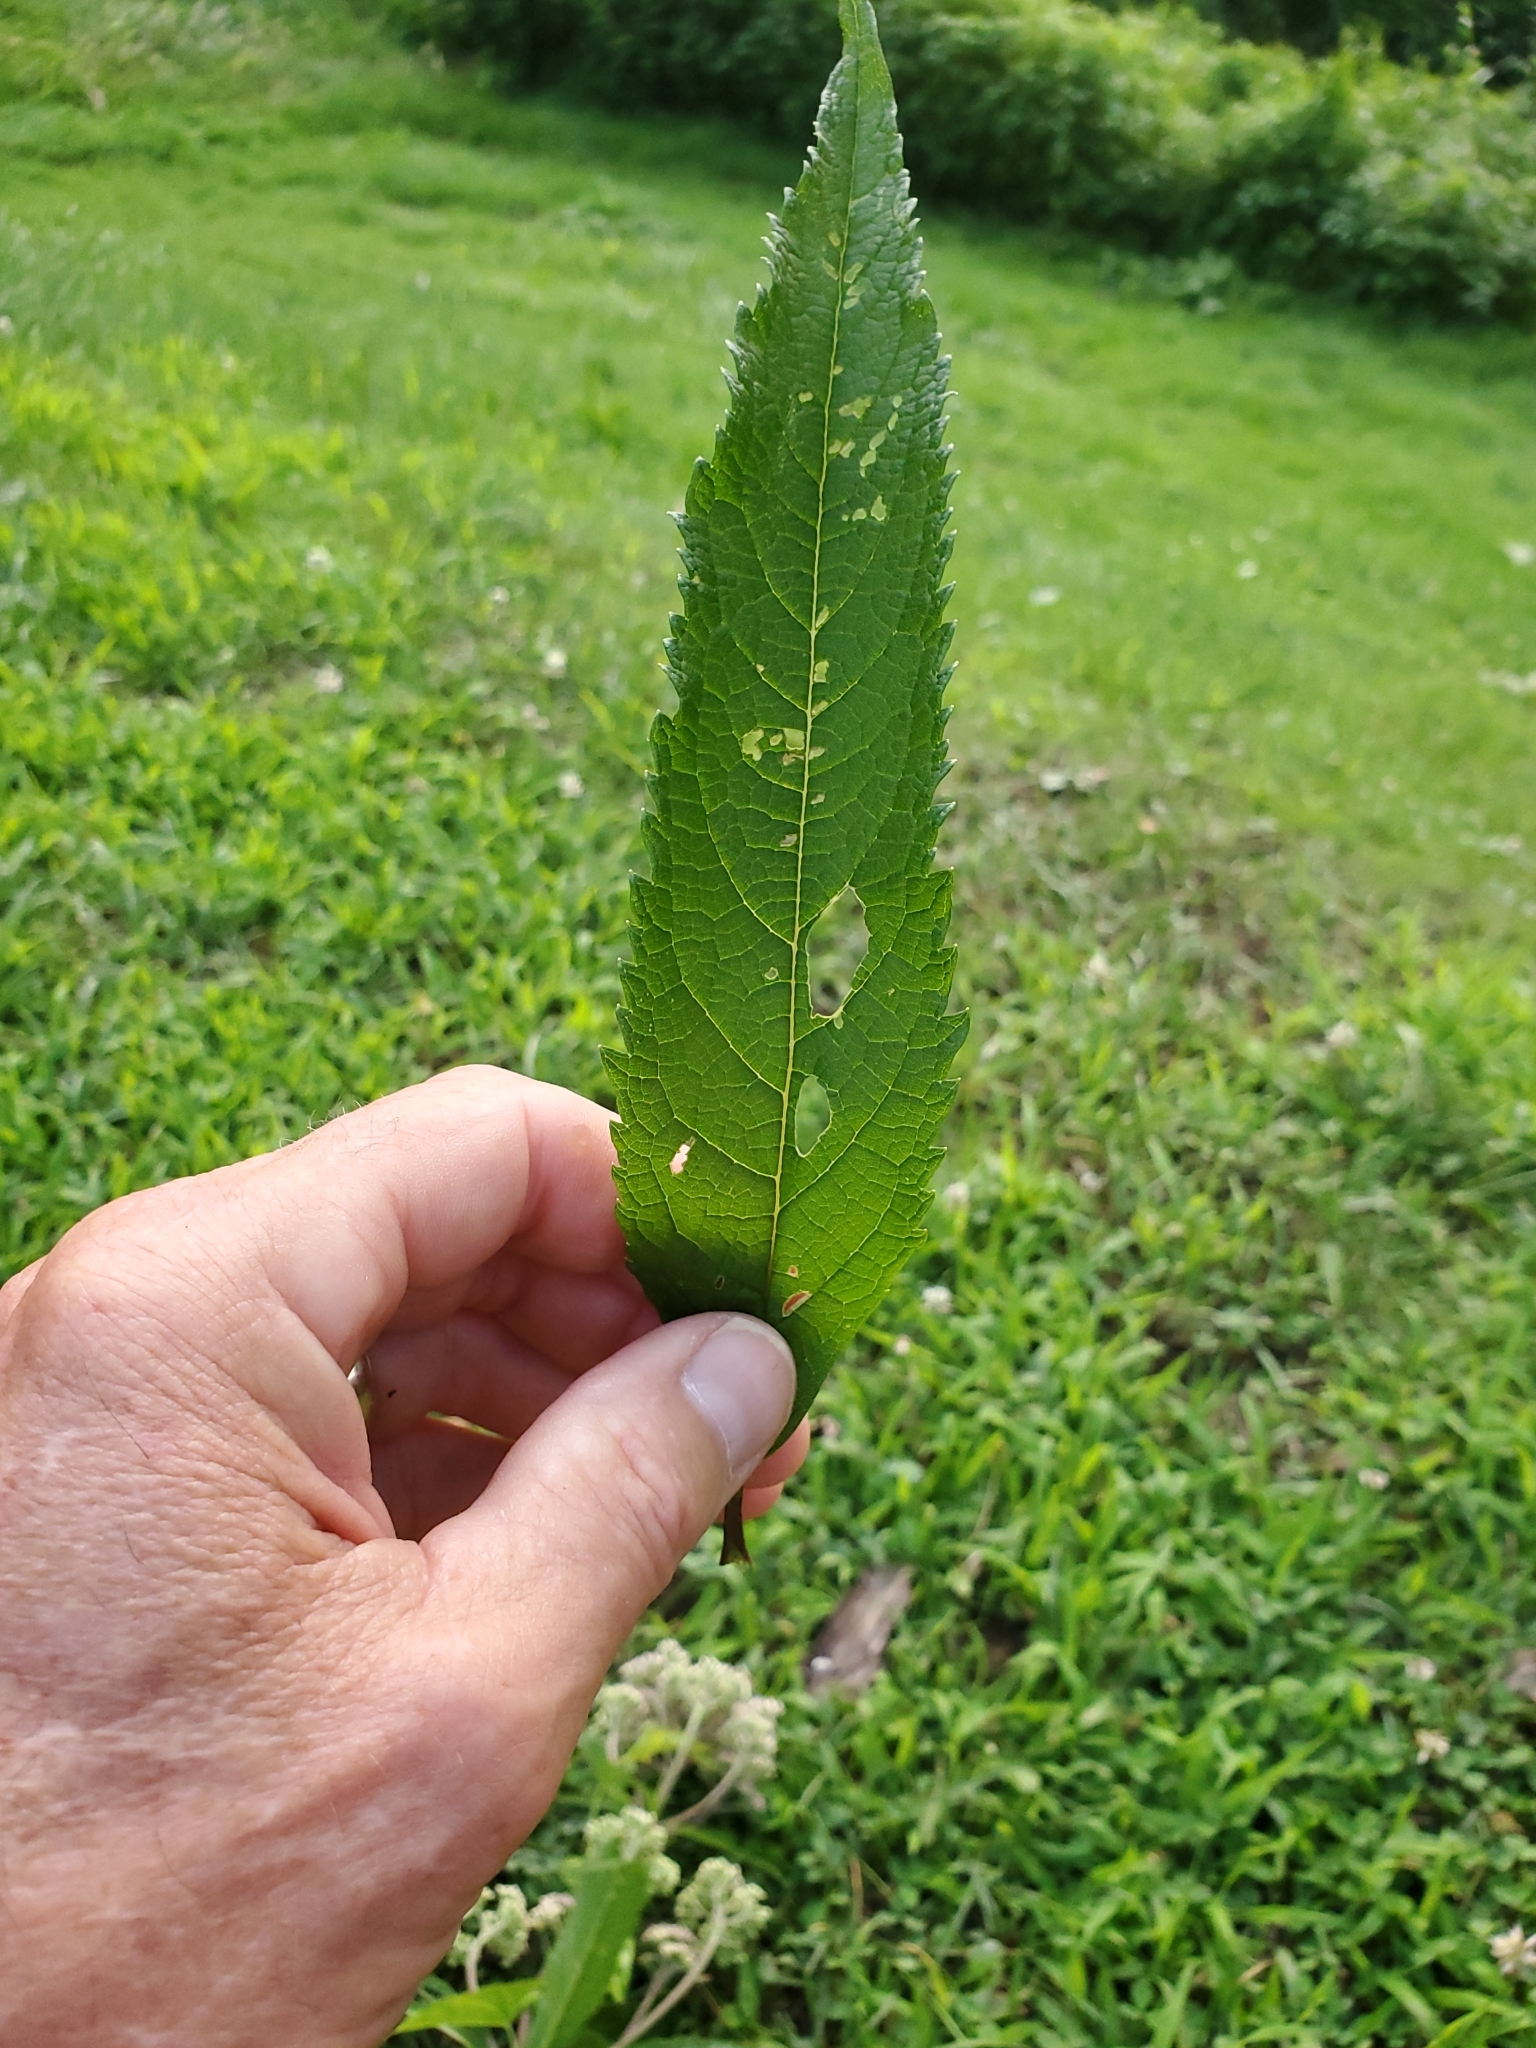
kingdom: Plantae
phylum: Tracheophyta
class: Magnoliopsida
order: Asterales
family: Asteraceae
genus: Eutrochium
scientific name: Eutrochium fistulosum
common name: Trumpetweed
